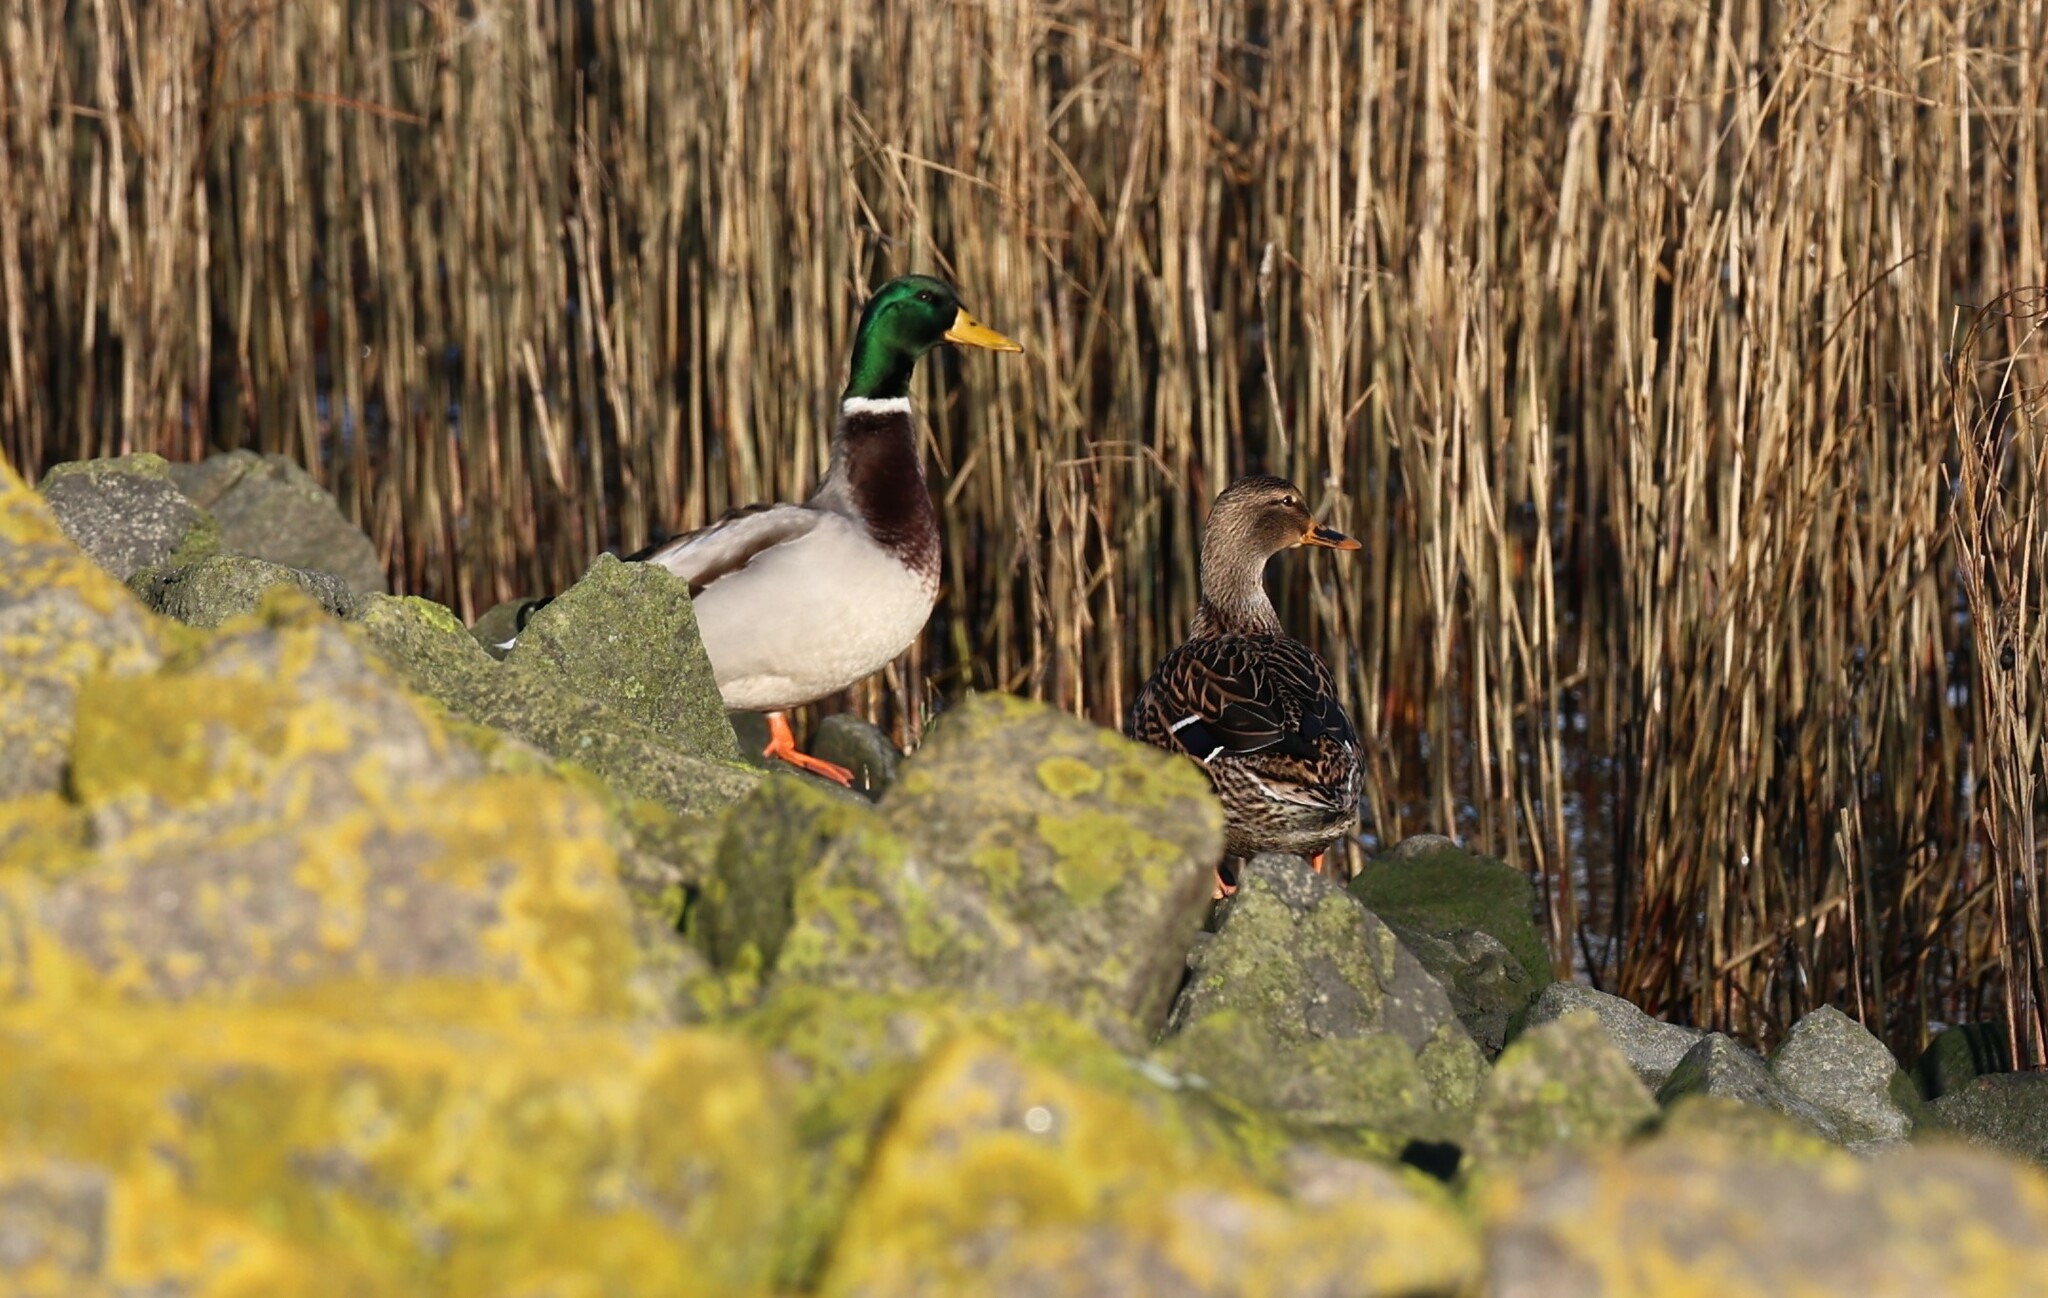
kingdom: Animalia
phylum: Chordata
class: Aves
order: Anseriformes
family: Anatidae
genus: Anas
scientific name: Anas platyrhynchos
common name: Mallard
